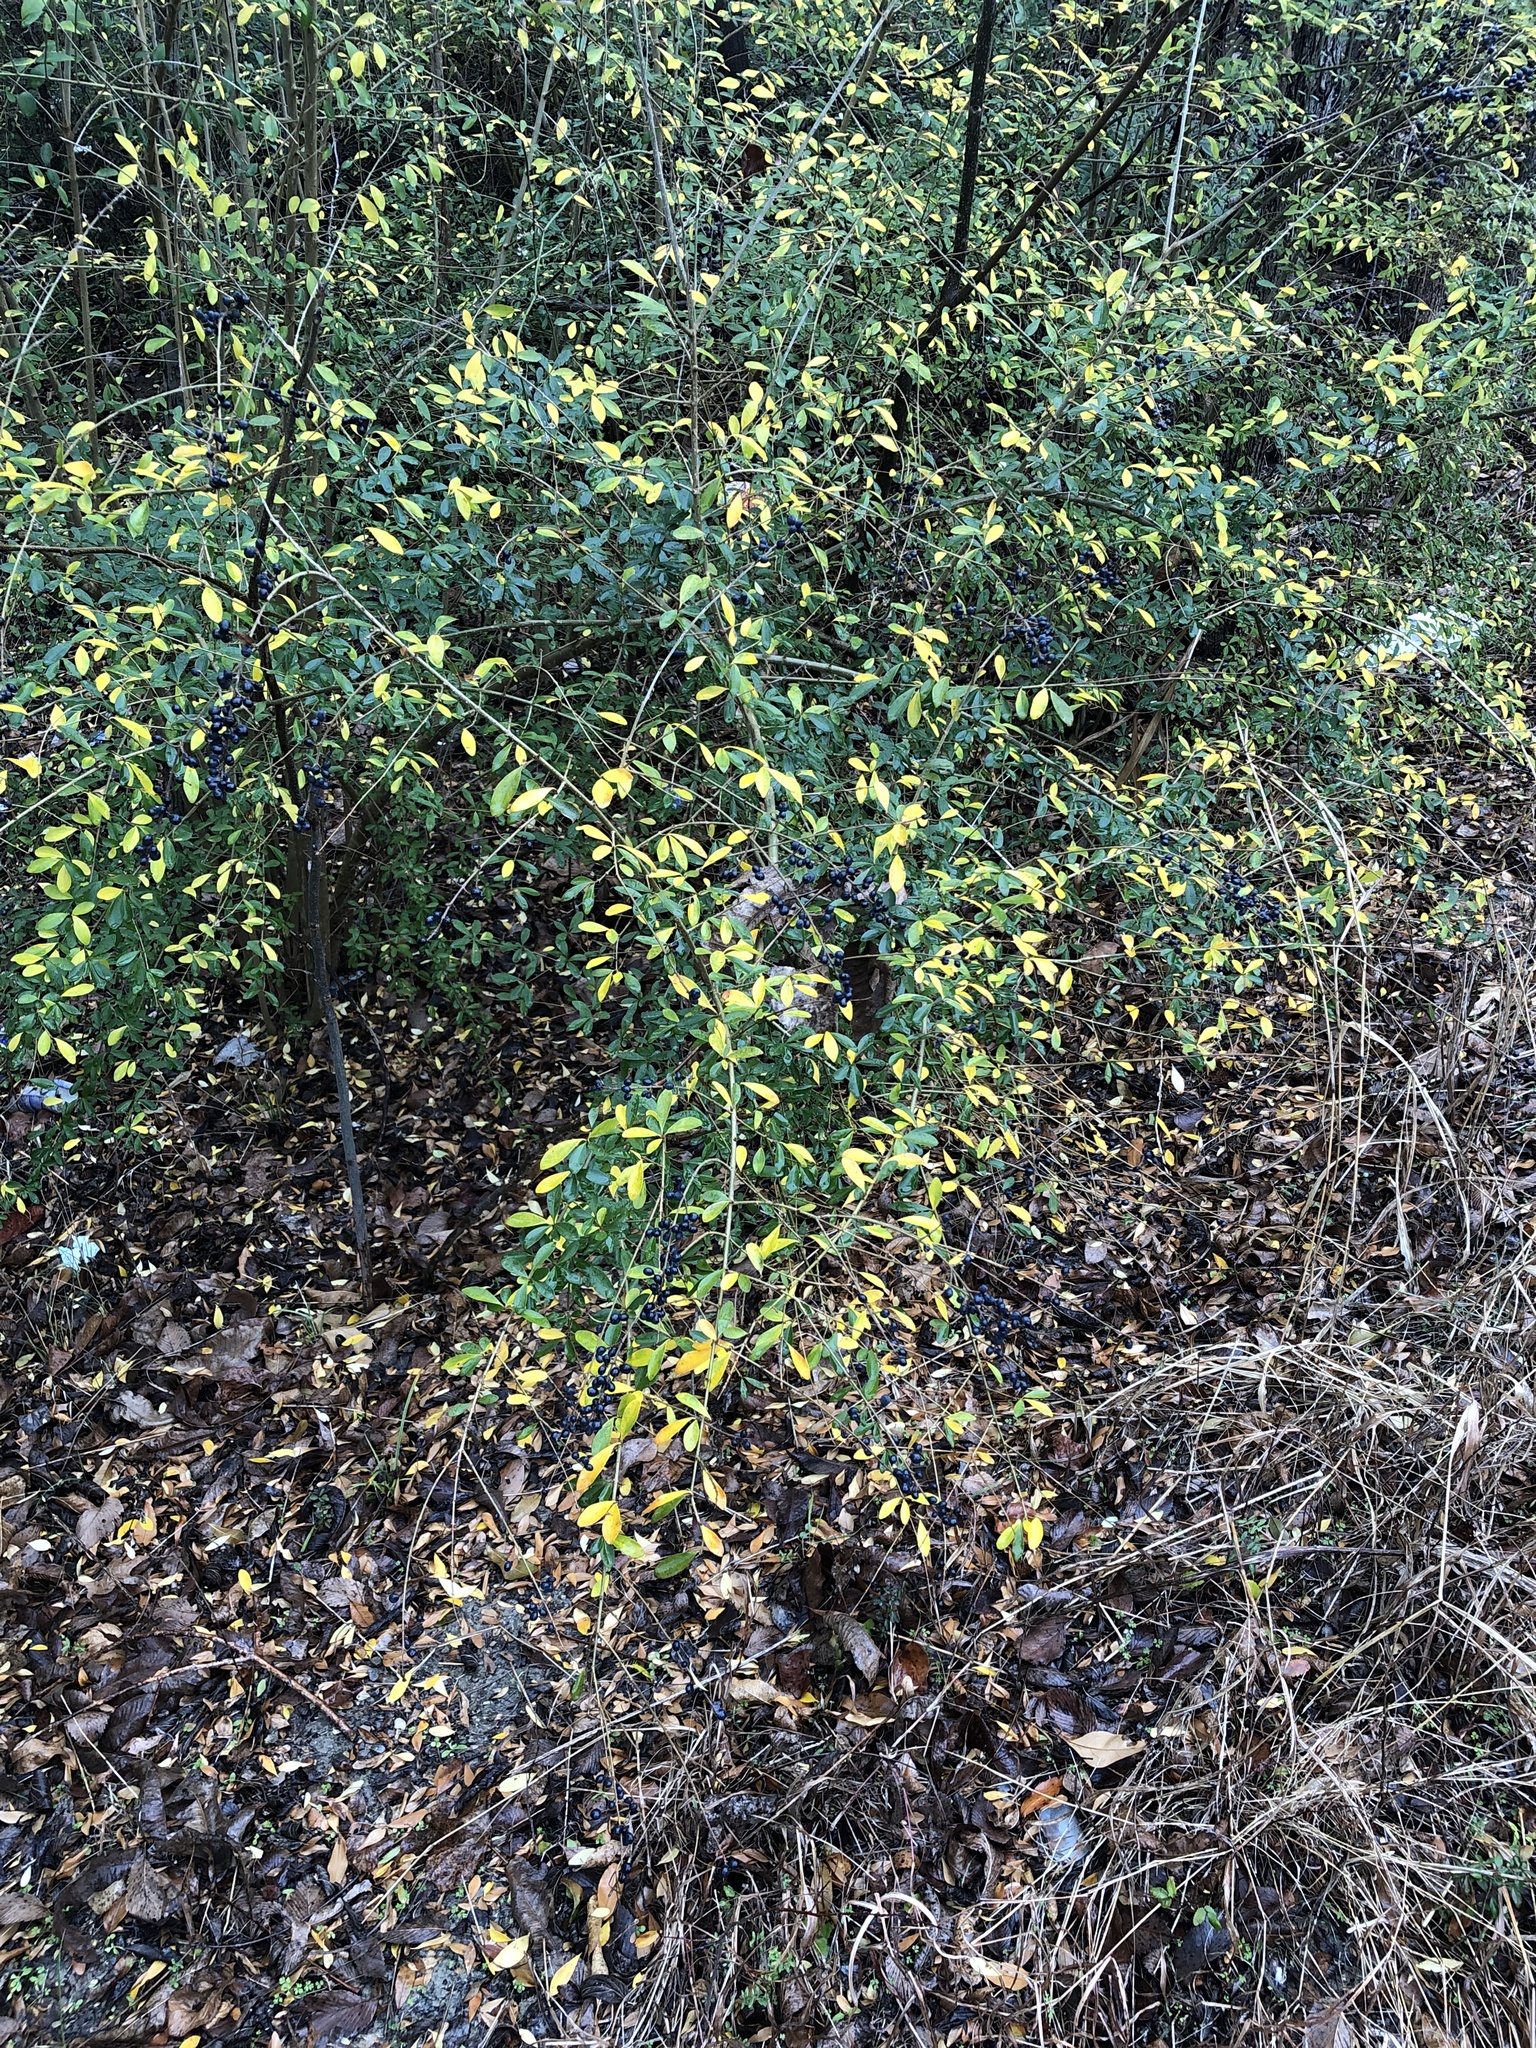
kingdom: Plantae
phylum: Tracheophyta
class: Magnoliopsida
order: Lamiales
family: Oleaceae
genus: Ligustrum
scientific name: Ligustrum quihoui
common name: Waxyleaf privet
